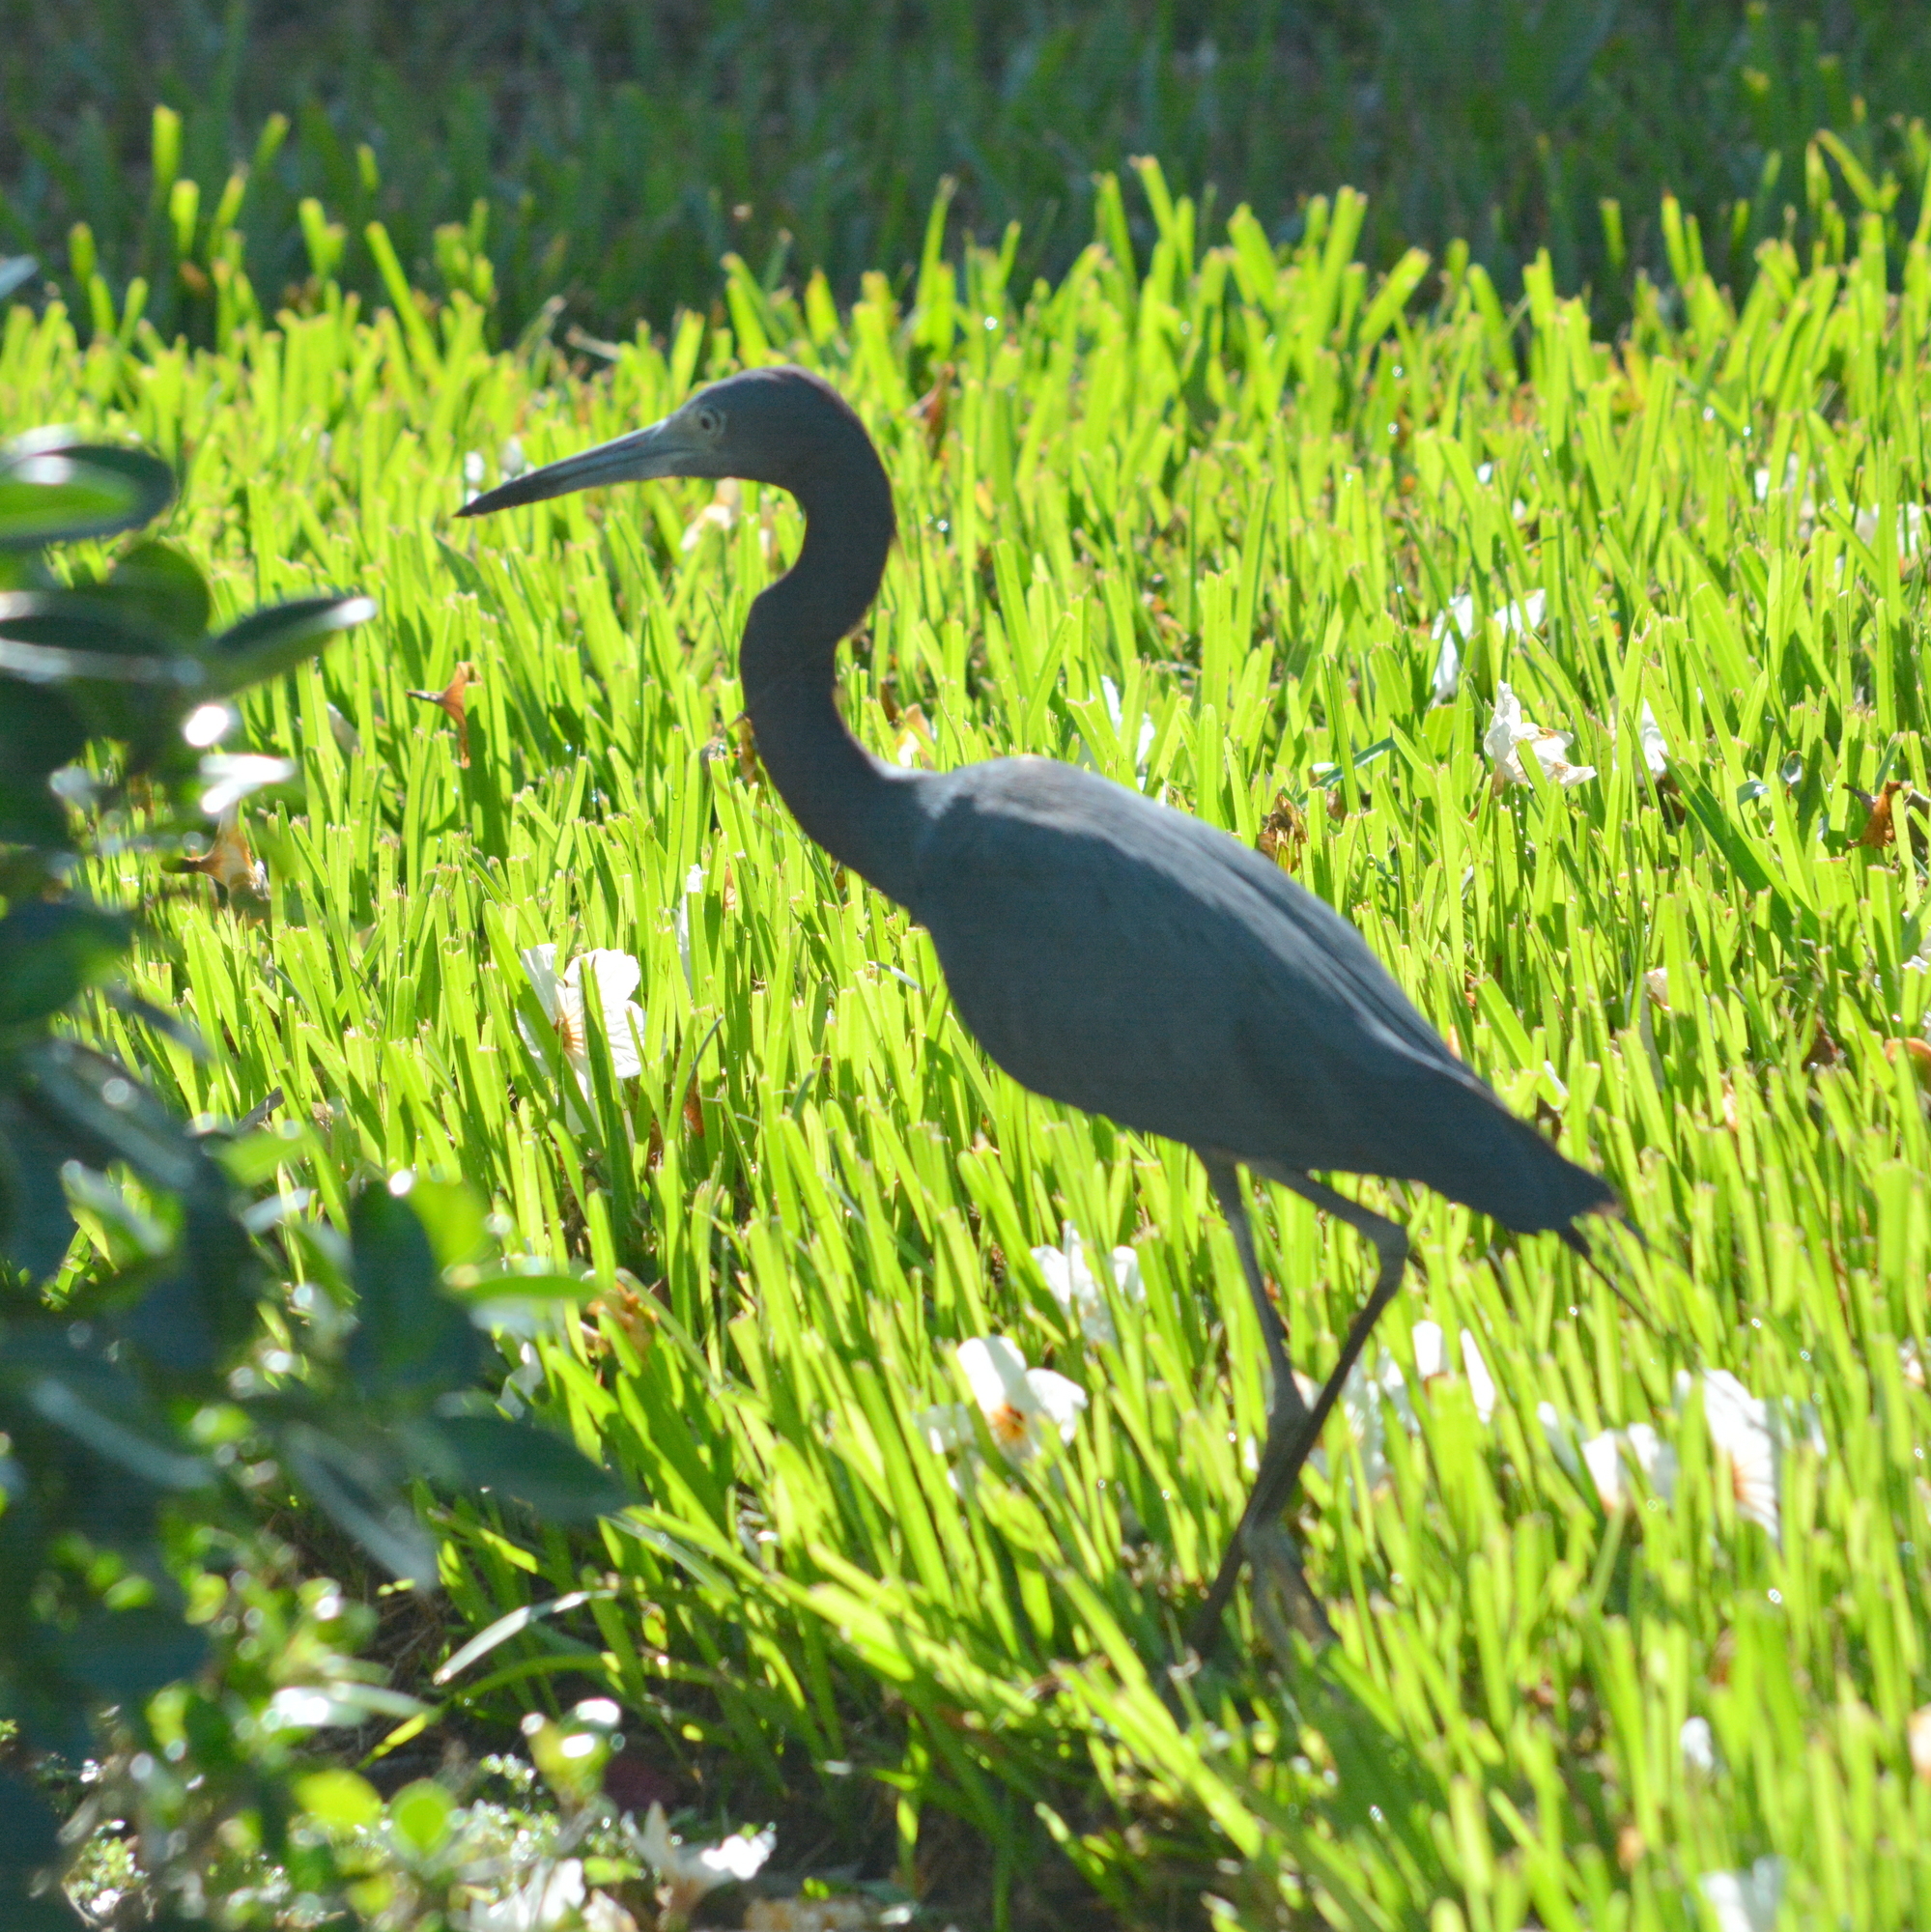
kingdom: Animalia
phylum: Chordata
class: Aves
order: Pelecaniformes
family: Ardeidae
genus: Egretta
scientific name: Egretta caerulea
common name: Little blue heron
